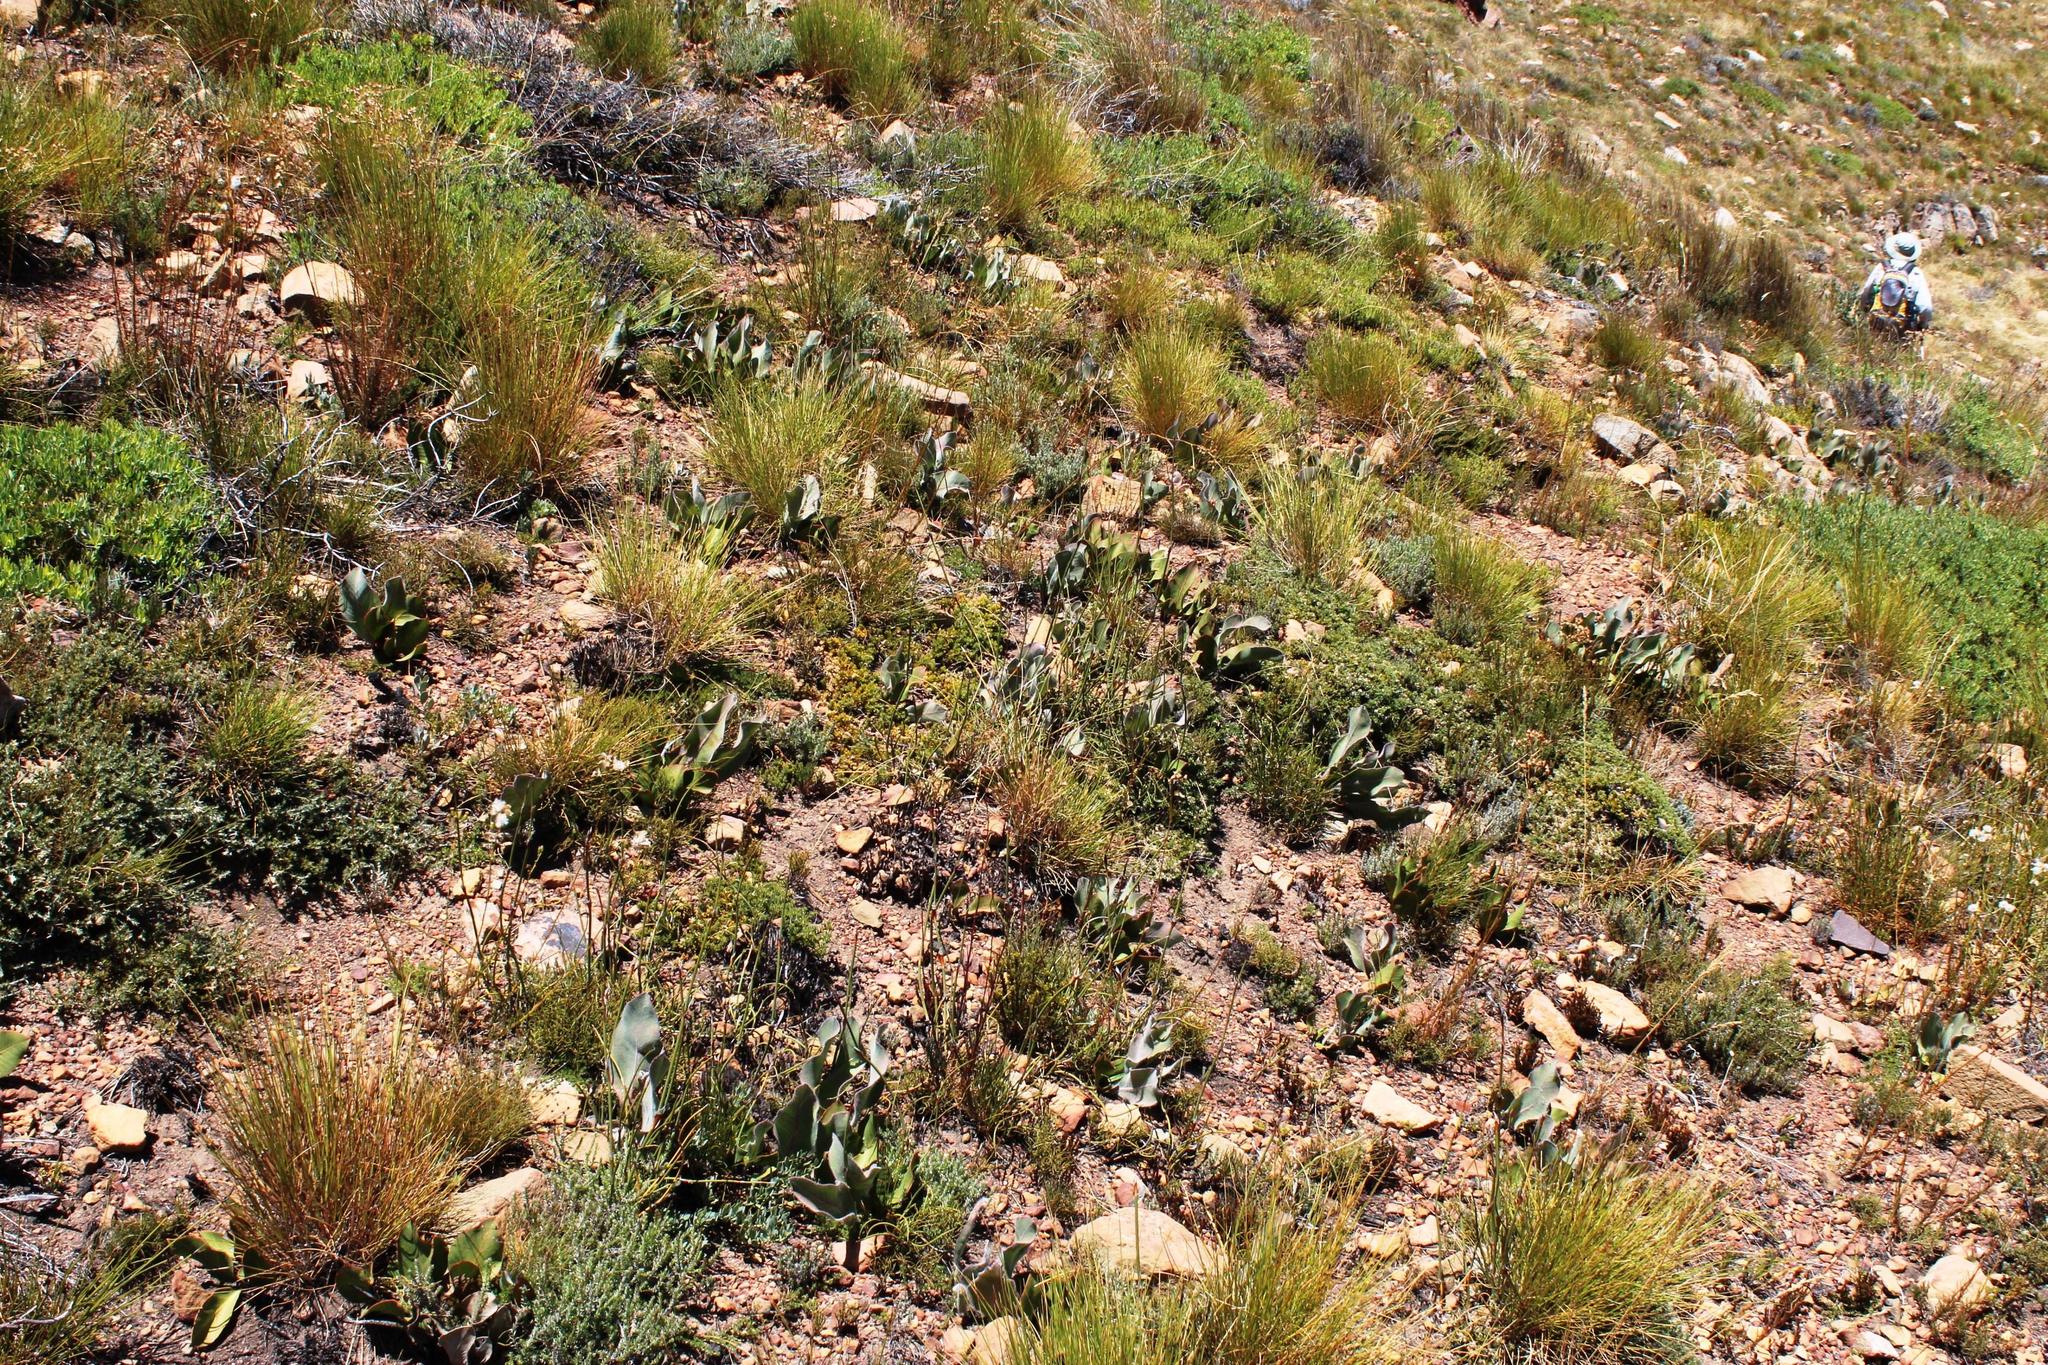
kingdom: Plantae
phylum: Tracheophyta
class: Magnoliopsida
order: Proteales
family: Proteaceae
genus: Protea
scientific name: Protea scolopendriifolia
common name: Harts-tongue-fern sugarbush
